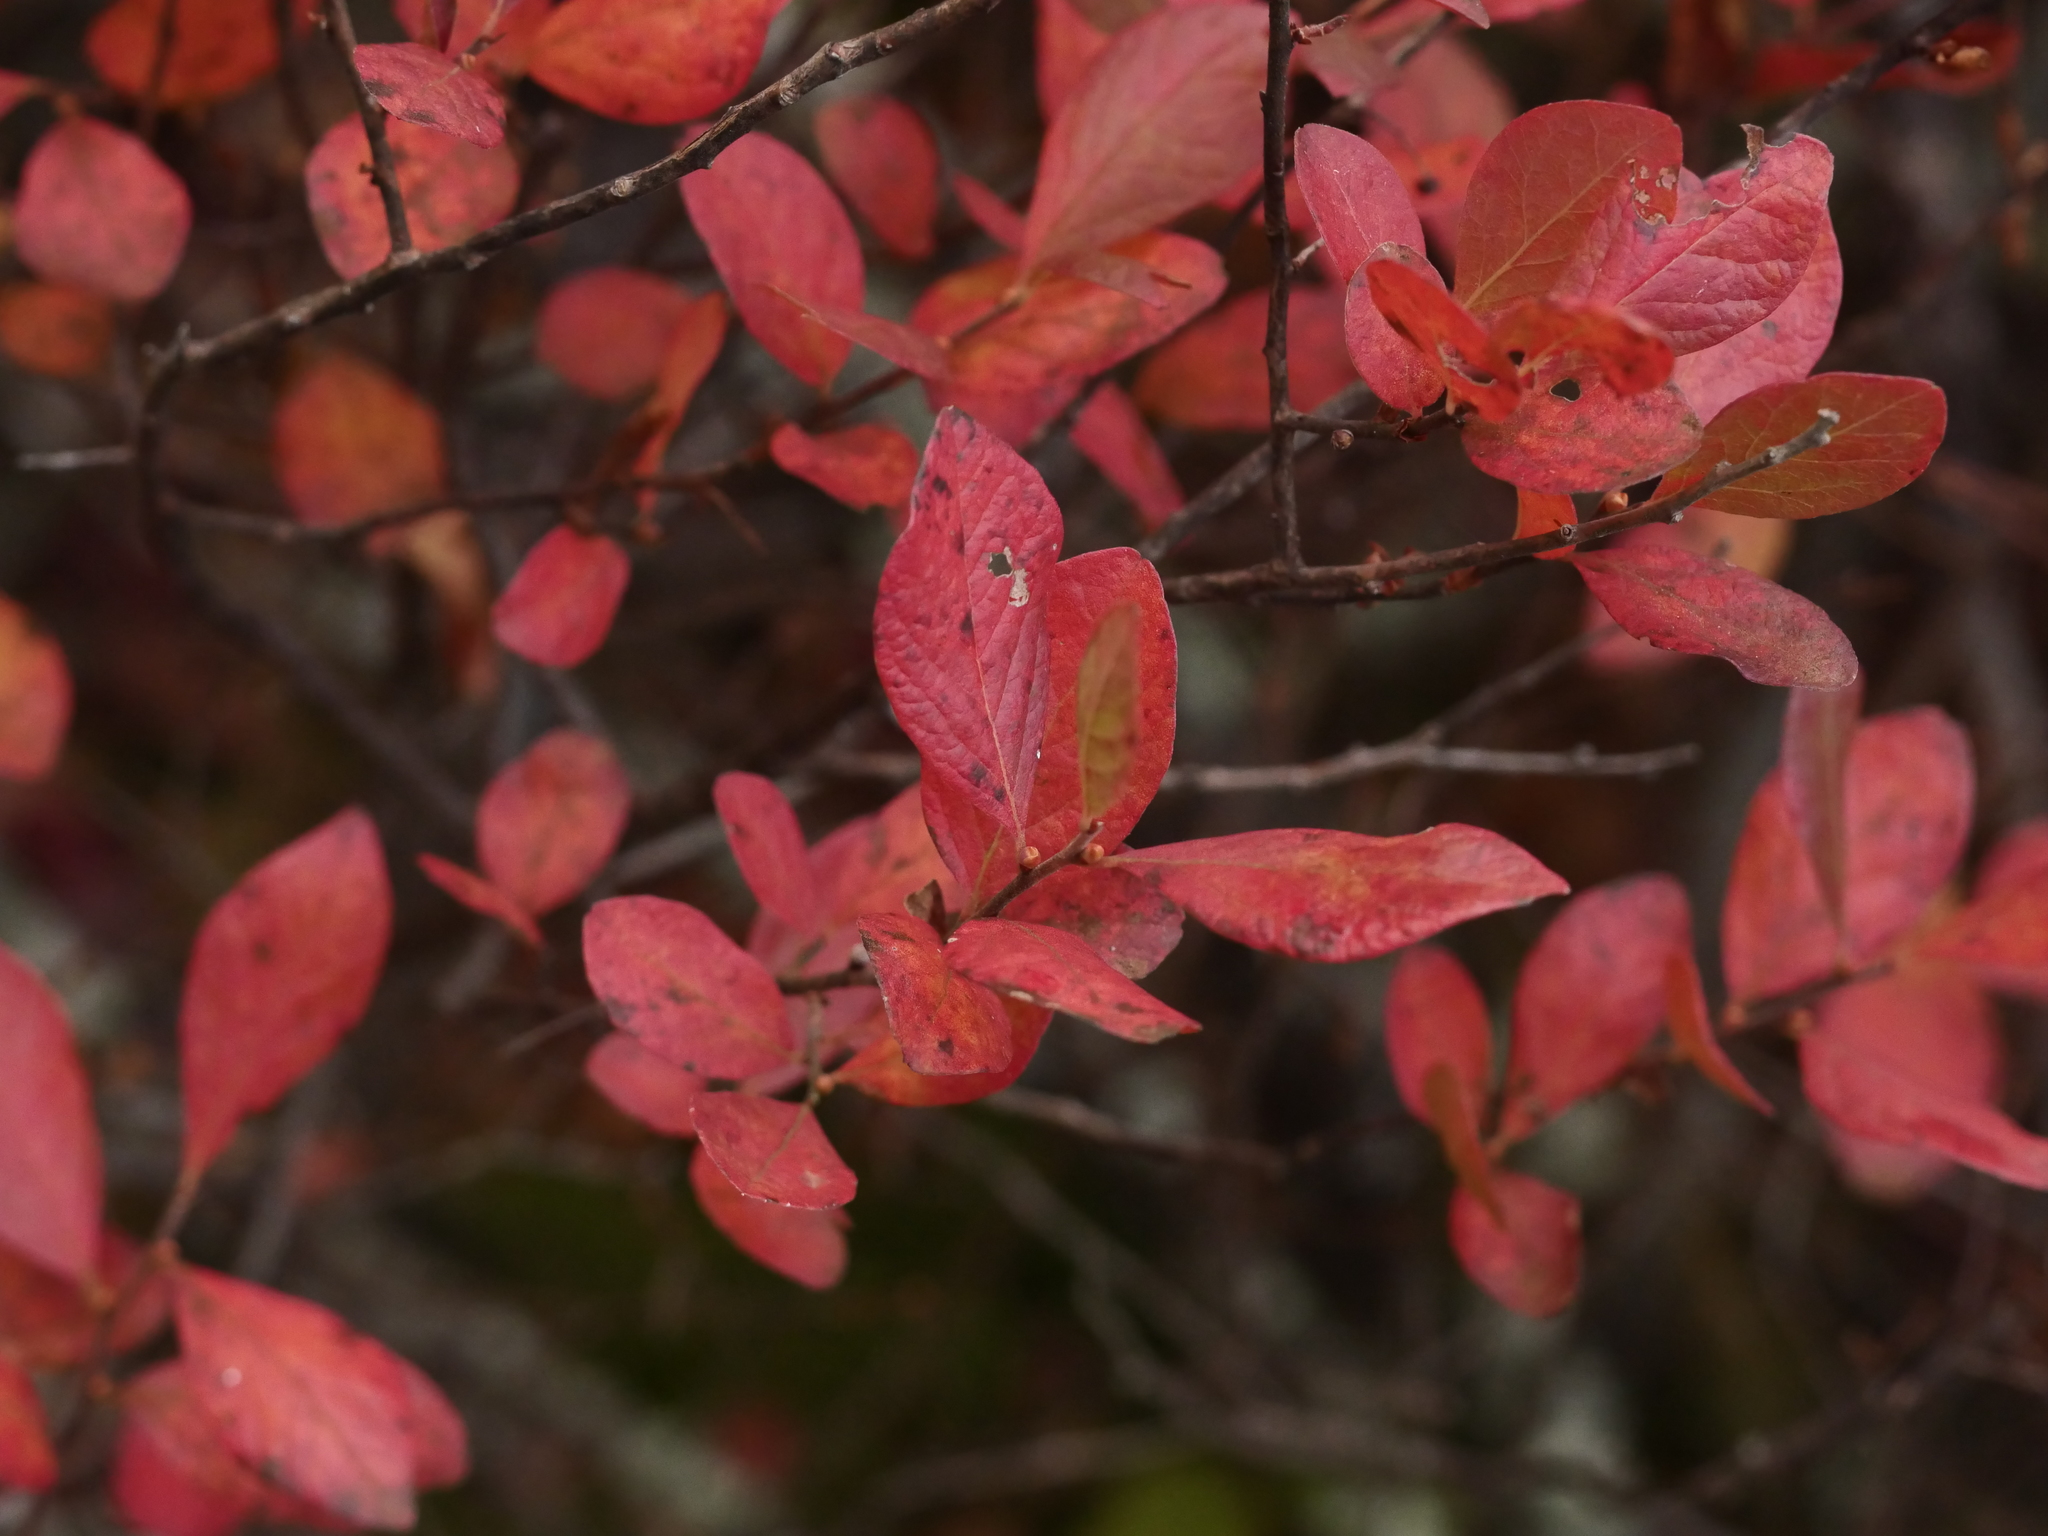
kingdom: Plantae
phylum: Tracheophyta
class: Magnoliopsida
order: Ericales
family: Ericaceae
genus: Gaylussacia
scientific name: Gaylussacia baccata
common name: Black huckleberry
